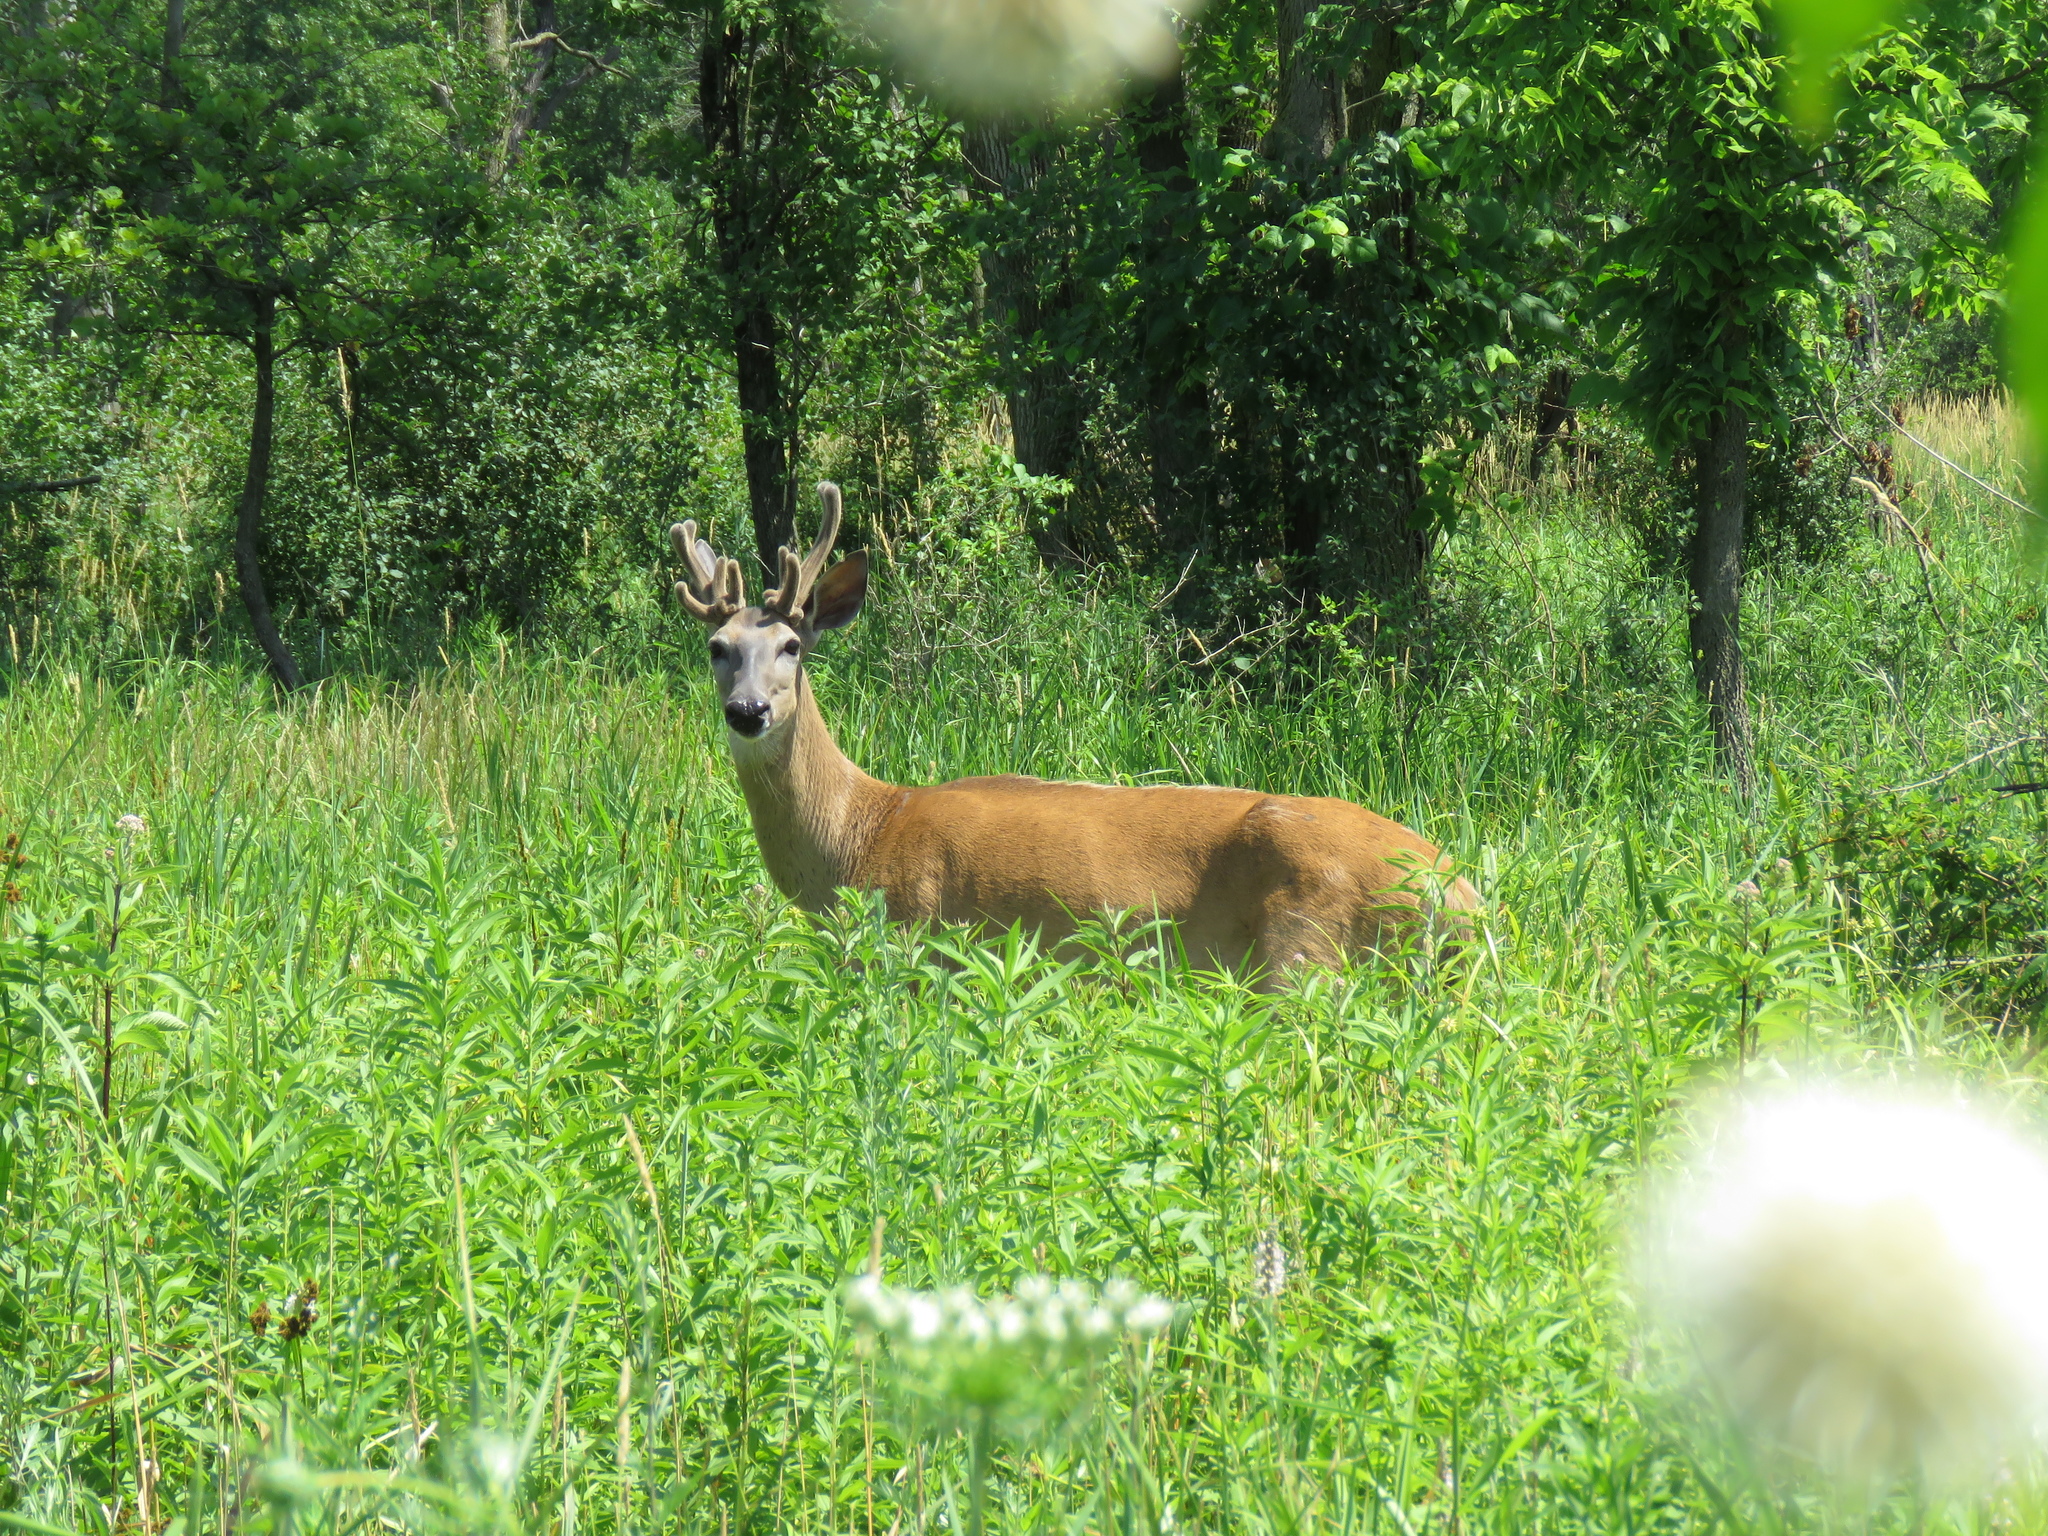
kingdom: Animalia
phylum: Chordata
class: Mammalia
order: Artiodactyla
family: Cervidae
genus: Odocoileus
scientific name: Odocoileus virginianus
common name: White-tailed deer
